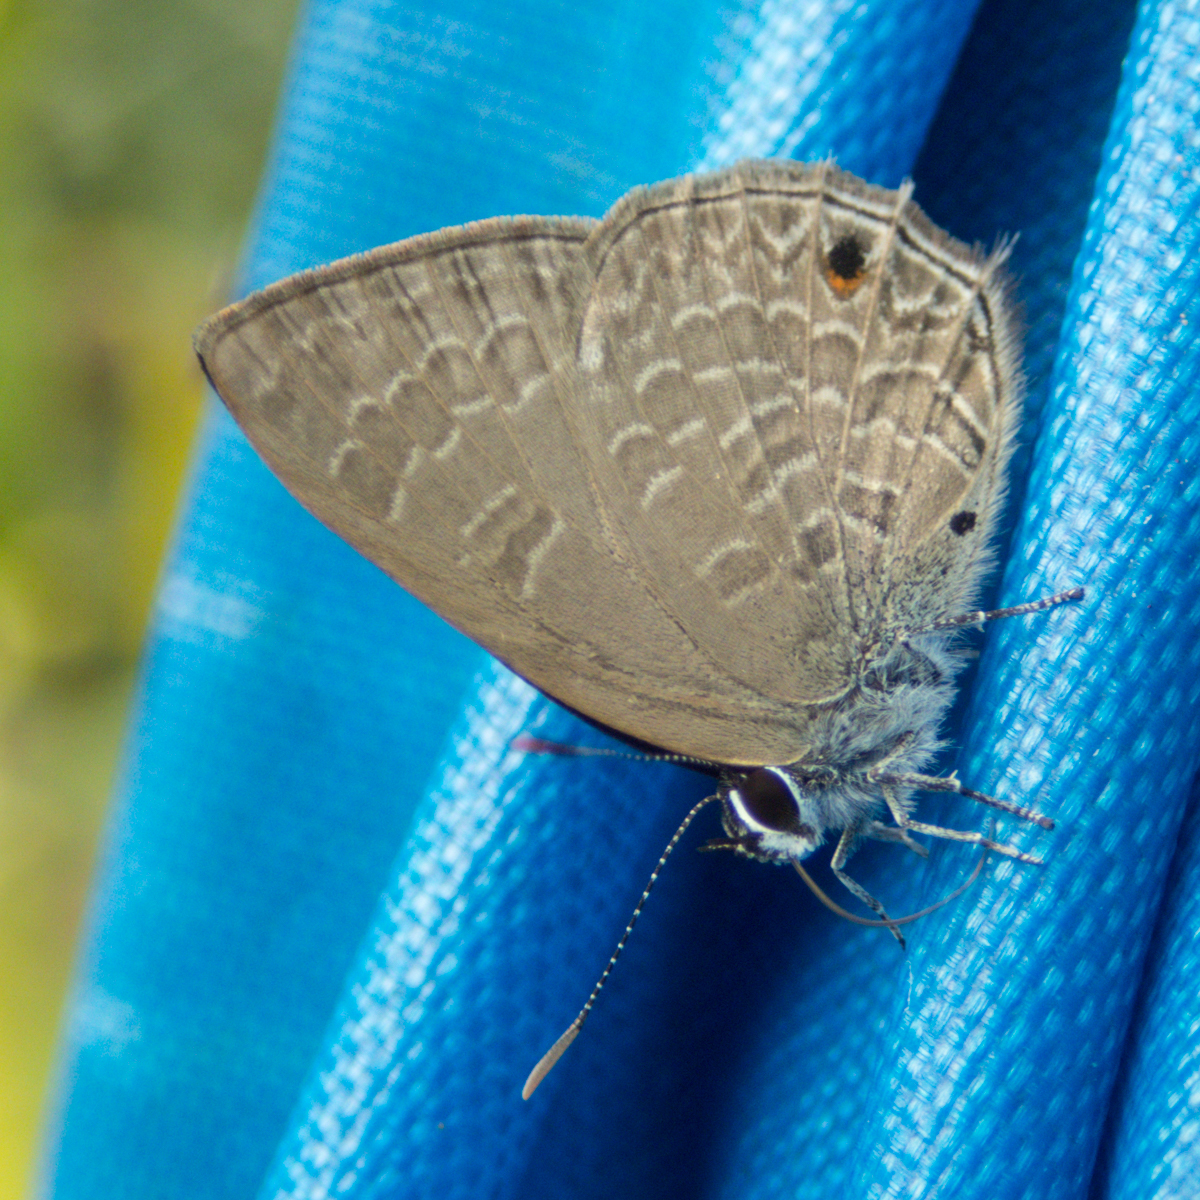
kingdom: Animalia
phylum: Arthropoda
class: Insecta
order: Lepidoptera
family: Lycaenidae
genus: Anthene
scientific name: Anthene emolus
